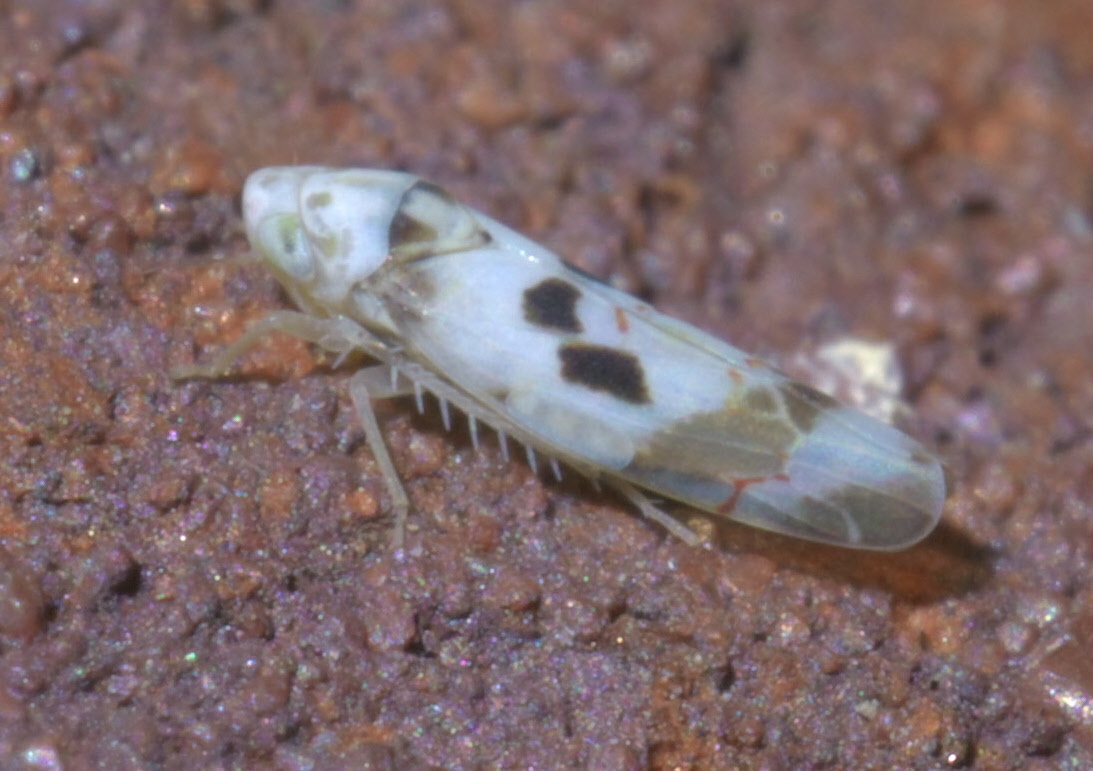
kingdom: Animalia
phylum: Arthropoda
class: Insecta
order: Hemiptera
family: Cicadellidae
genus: Eratoneura
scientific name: Eratoneura hymettana
